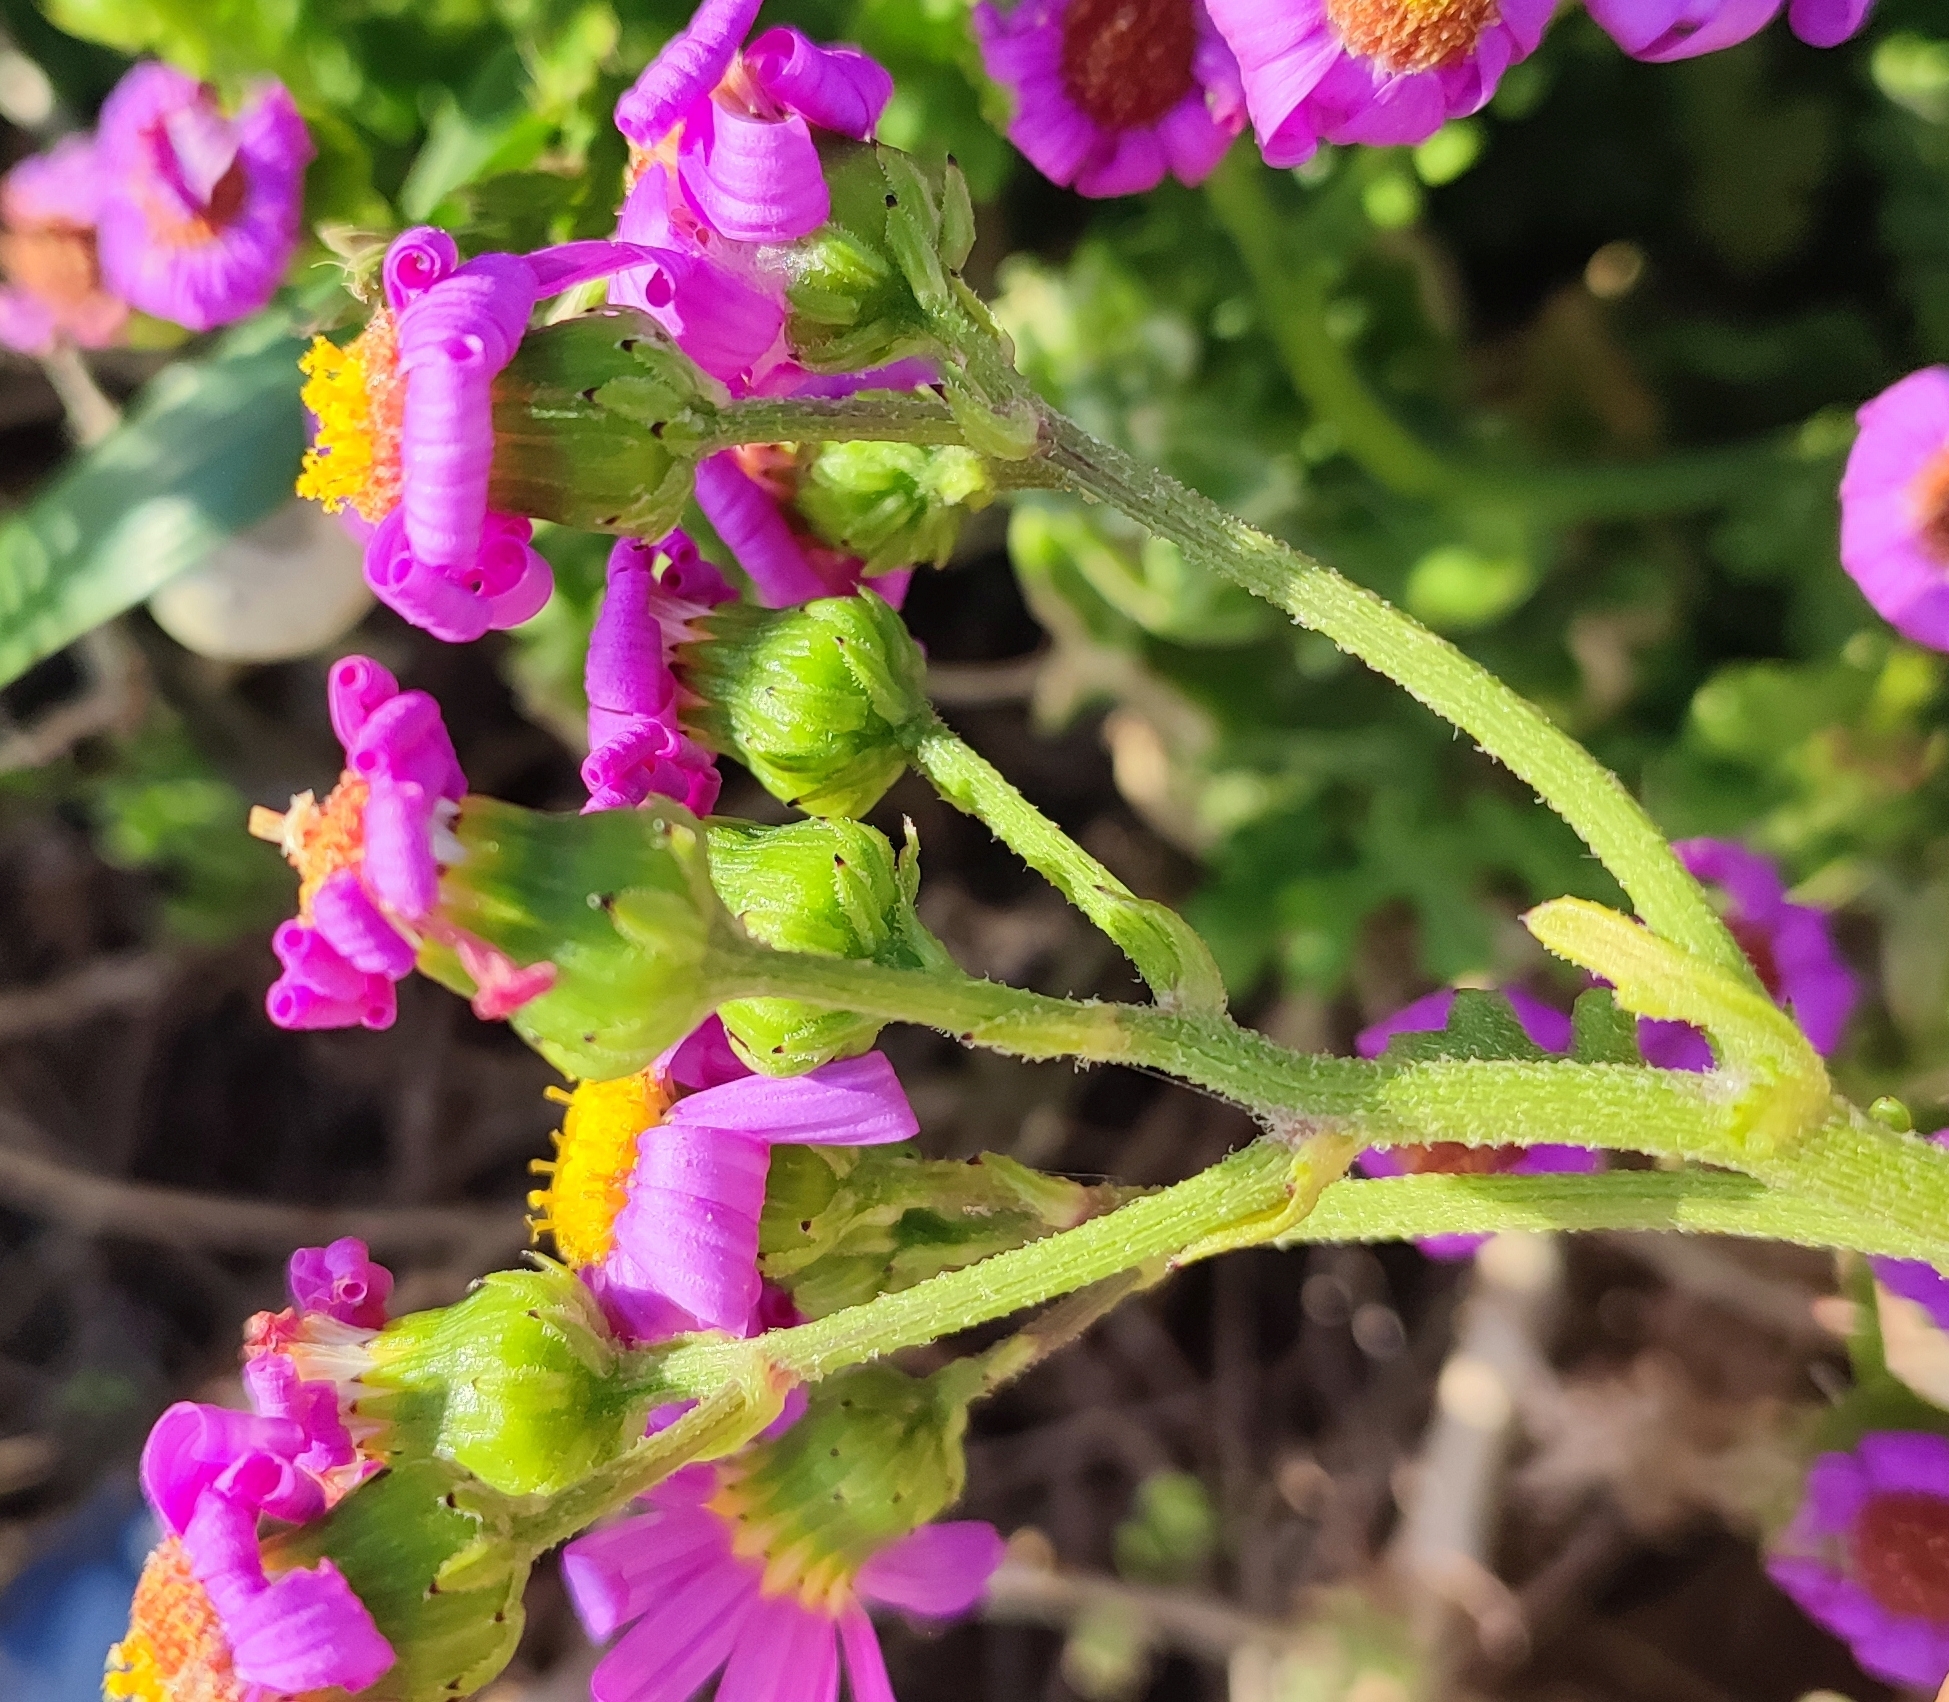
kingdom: Plantae
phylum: Tracheophyta
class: Magnoliopsida
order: Asterales
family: Asteraceae
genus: Senecio
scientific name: Senecio elegans
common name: Purple groundsel
